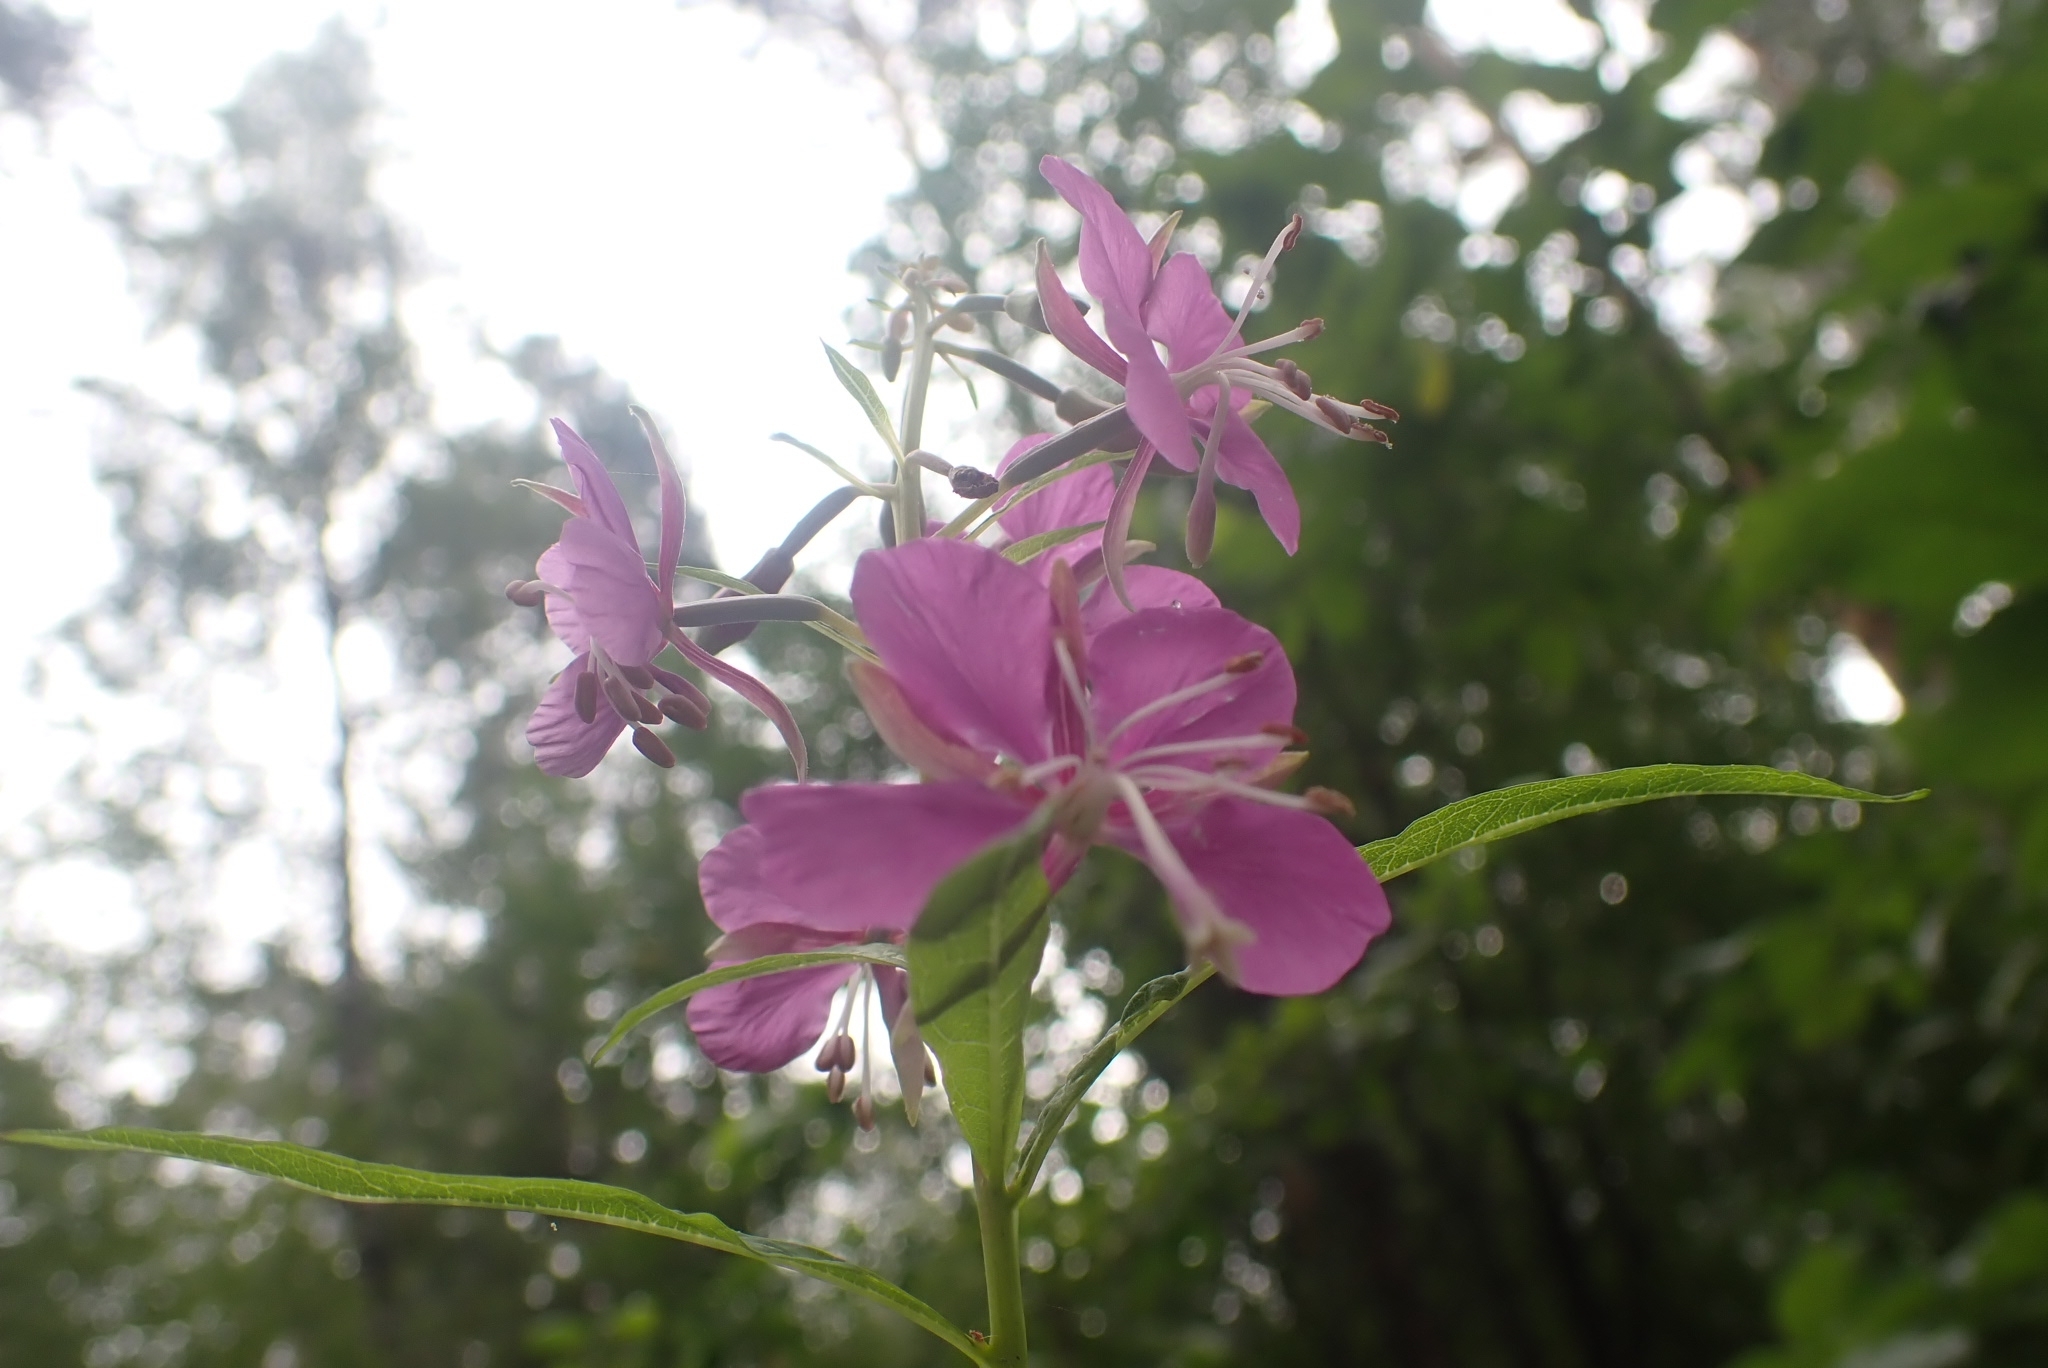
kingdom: Plantae
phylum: Tracheophyta
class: Magnoliopsida
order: Myrtales
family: Onagraceae
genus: Chamaenerion
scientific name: Chamaenerion angustifolium
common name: Fireweed
